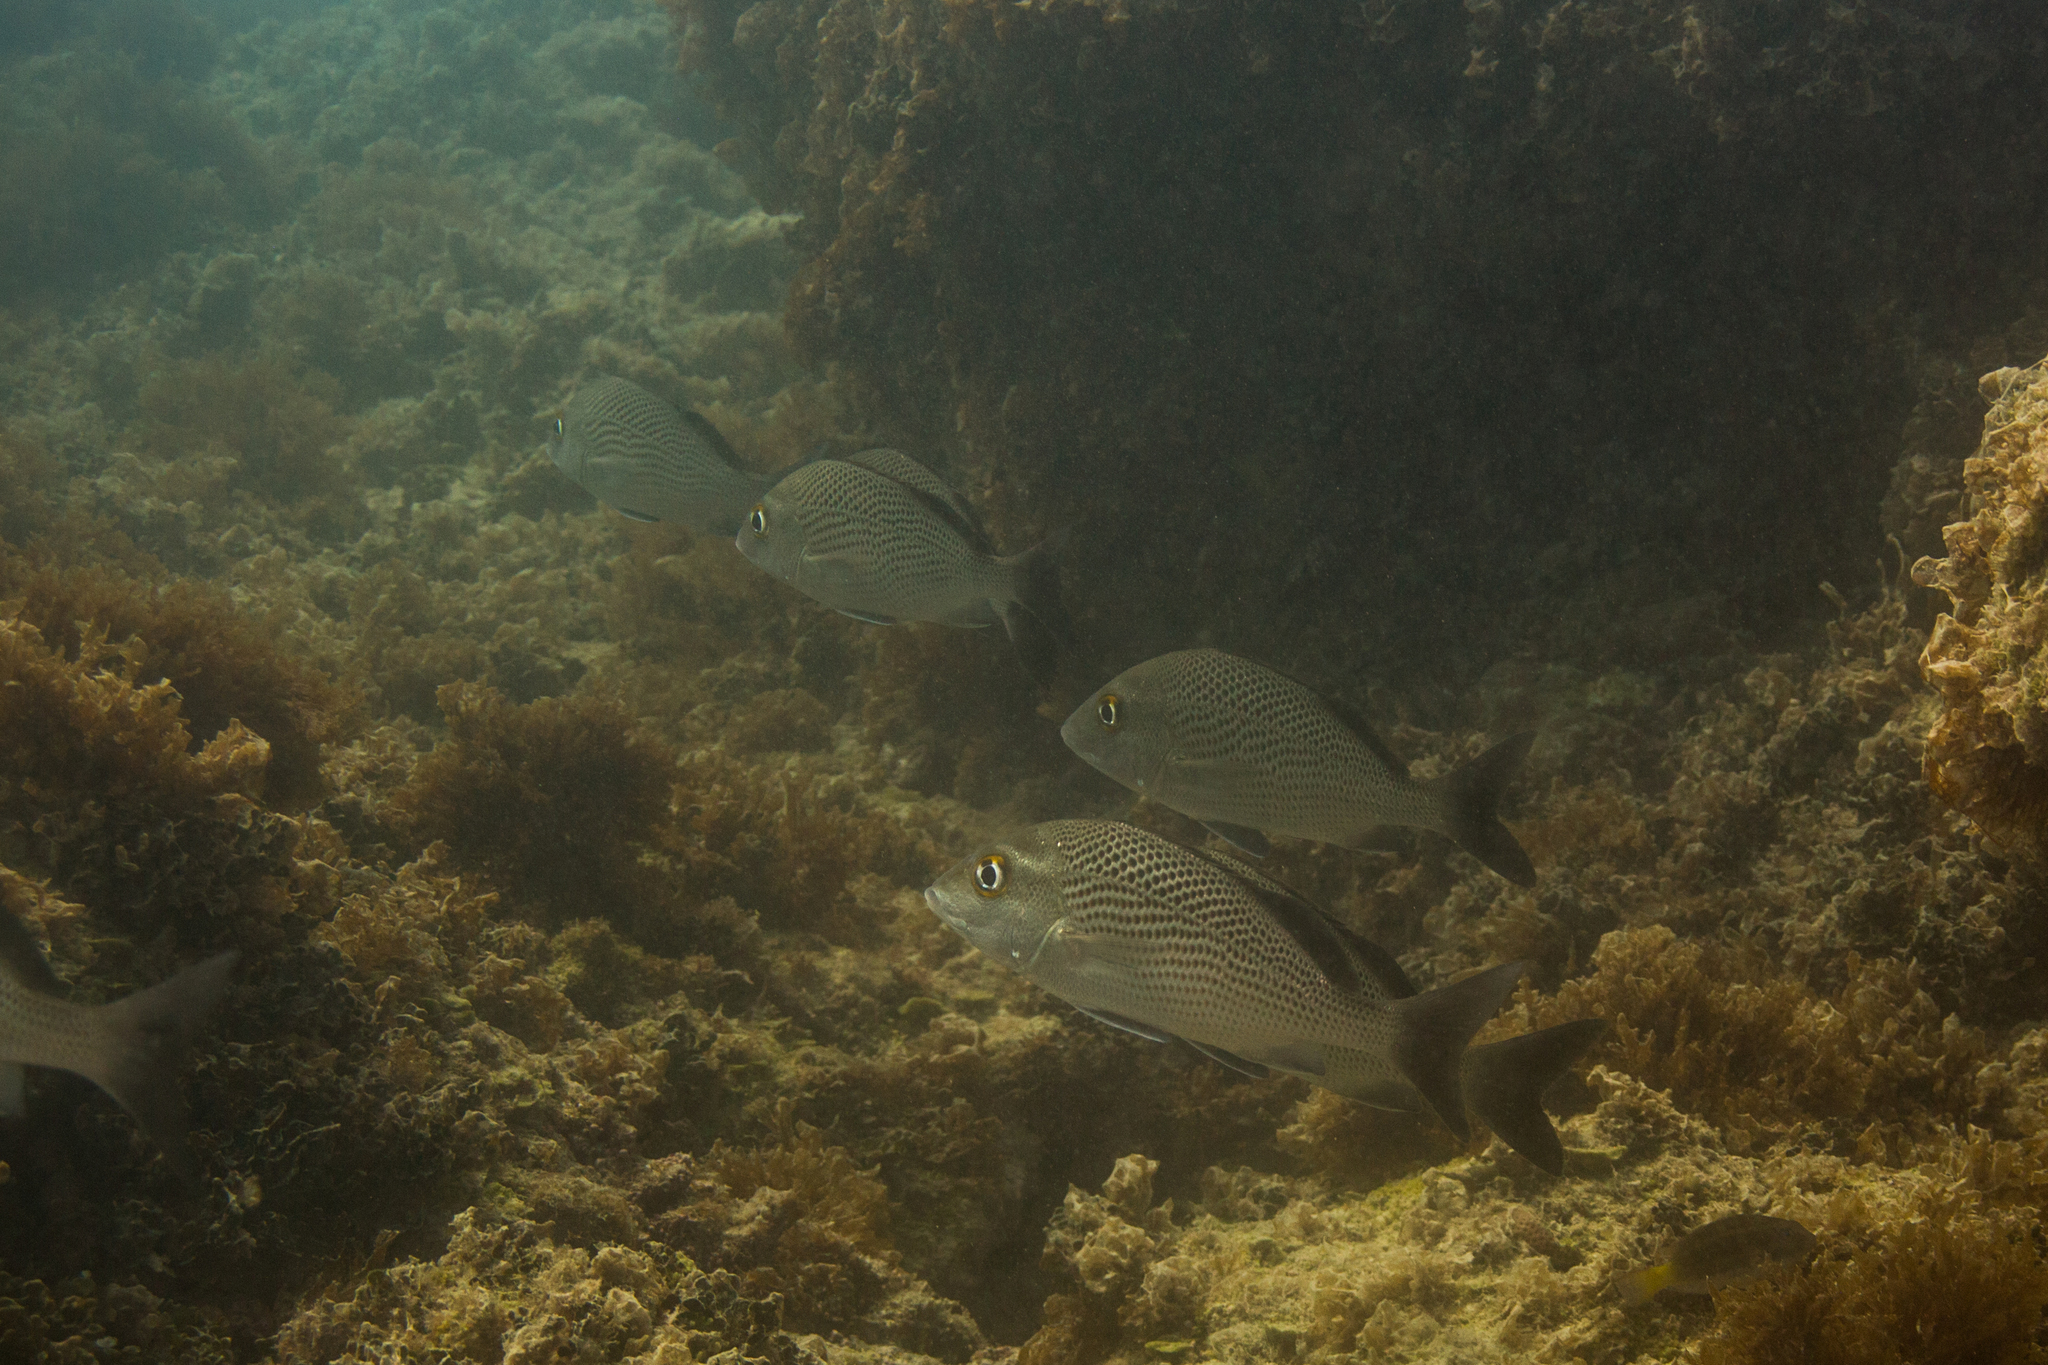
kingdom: Animalia
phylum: Chordata
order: Perciformes
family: Haemulidae
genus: Haemulon
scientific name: Haemulon parra
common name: Sailor's choice
